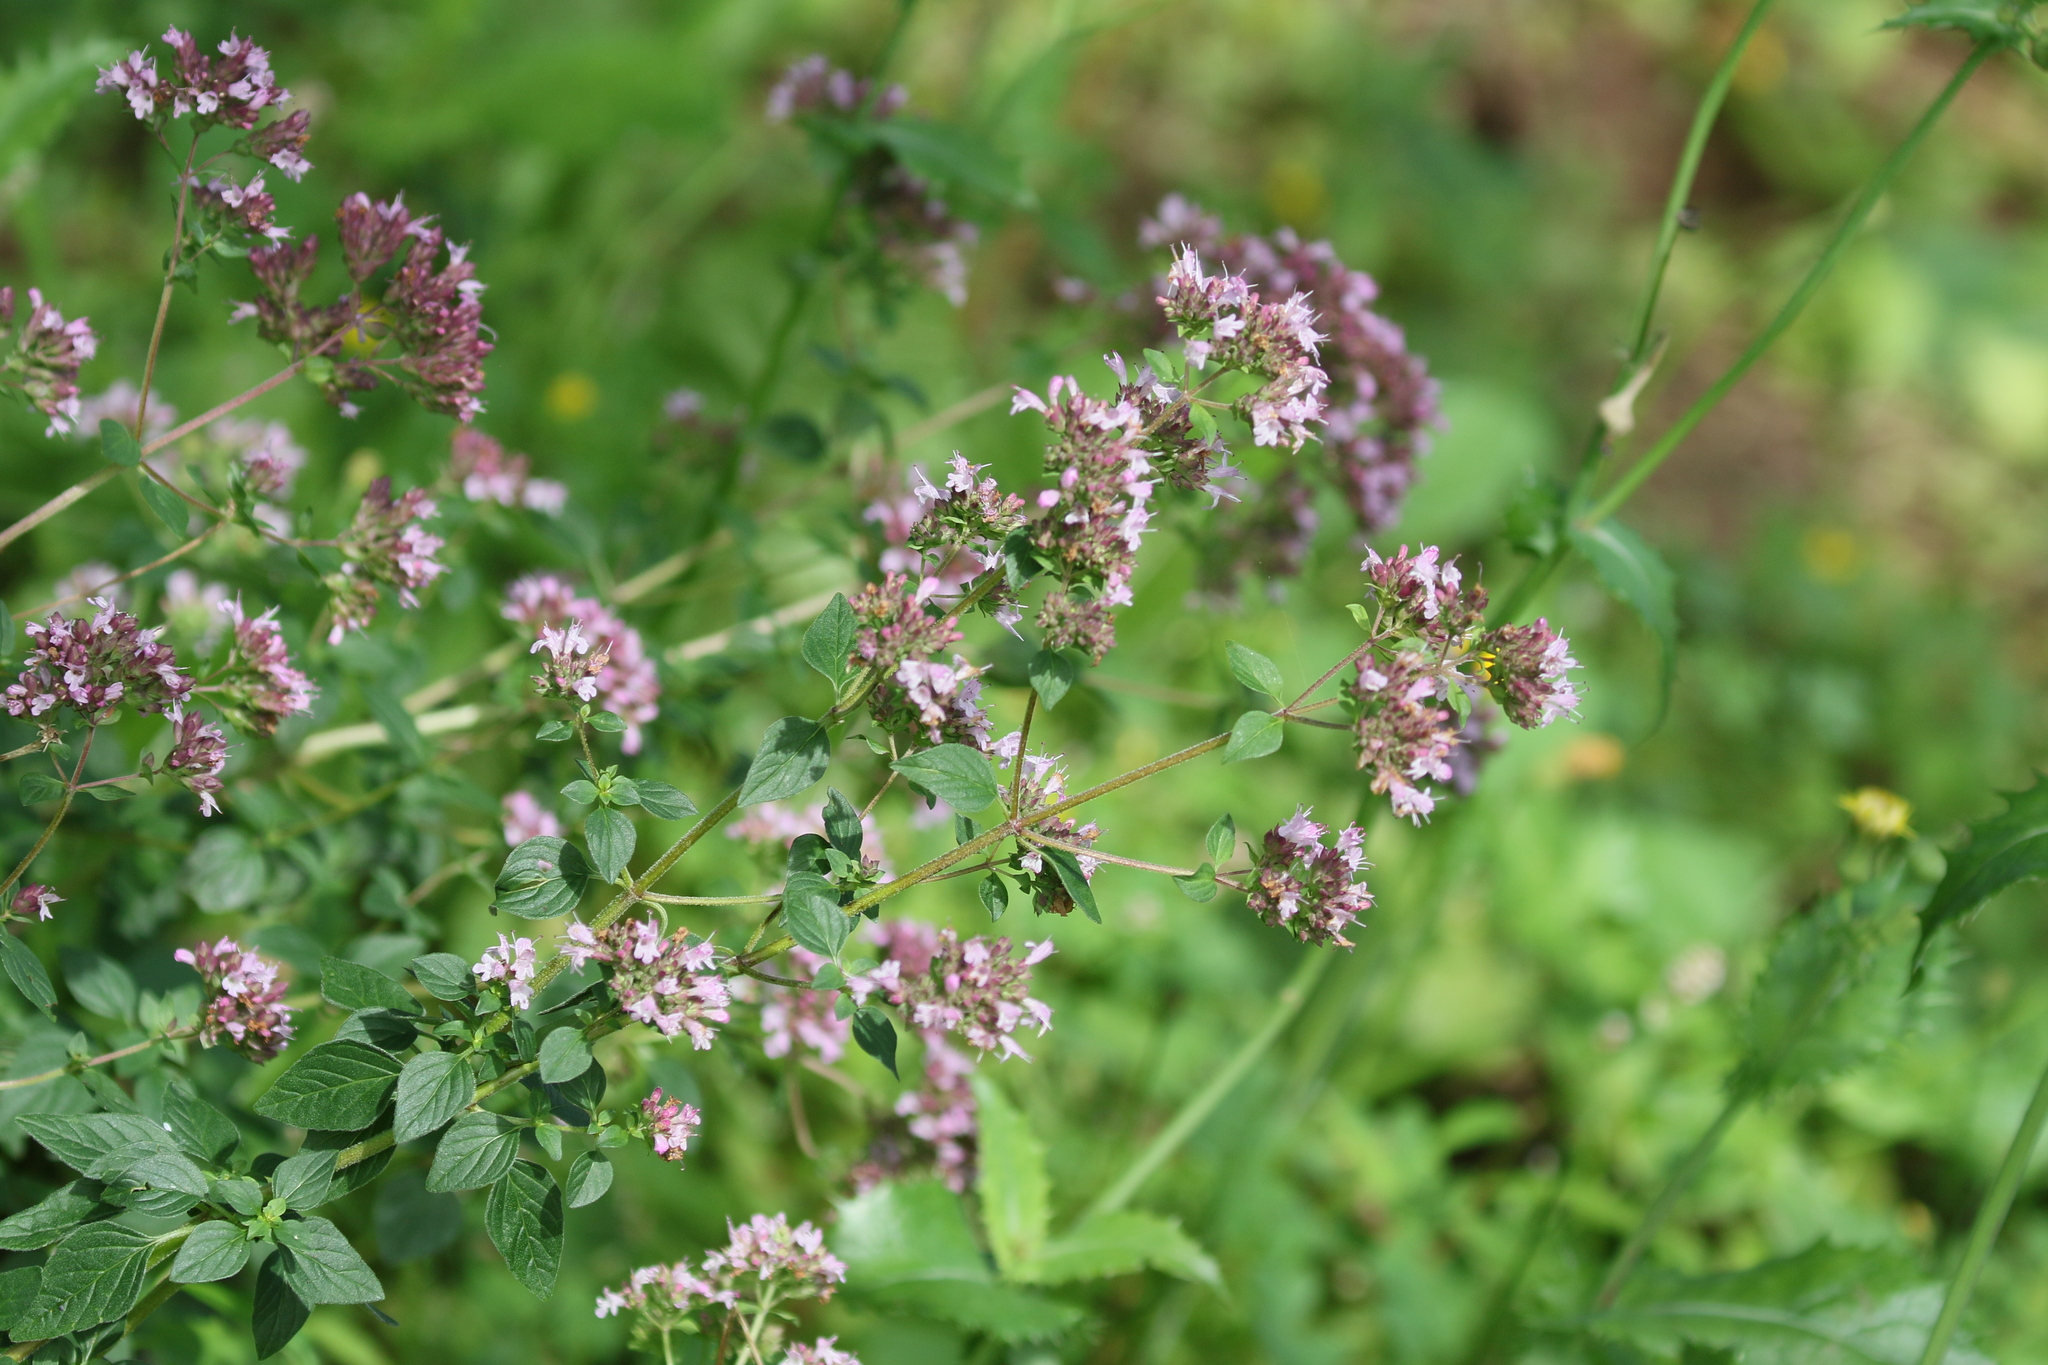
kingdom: Plantae
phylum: Tracheophyta
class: Magnoliopsida
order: Lamiales
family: Lamiaceae
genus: Origanum
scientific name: Origanum vulgare
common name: Wild marjoram
